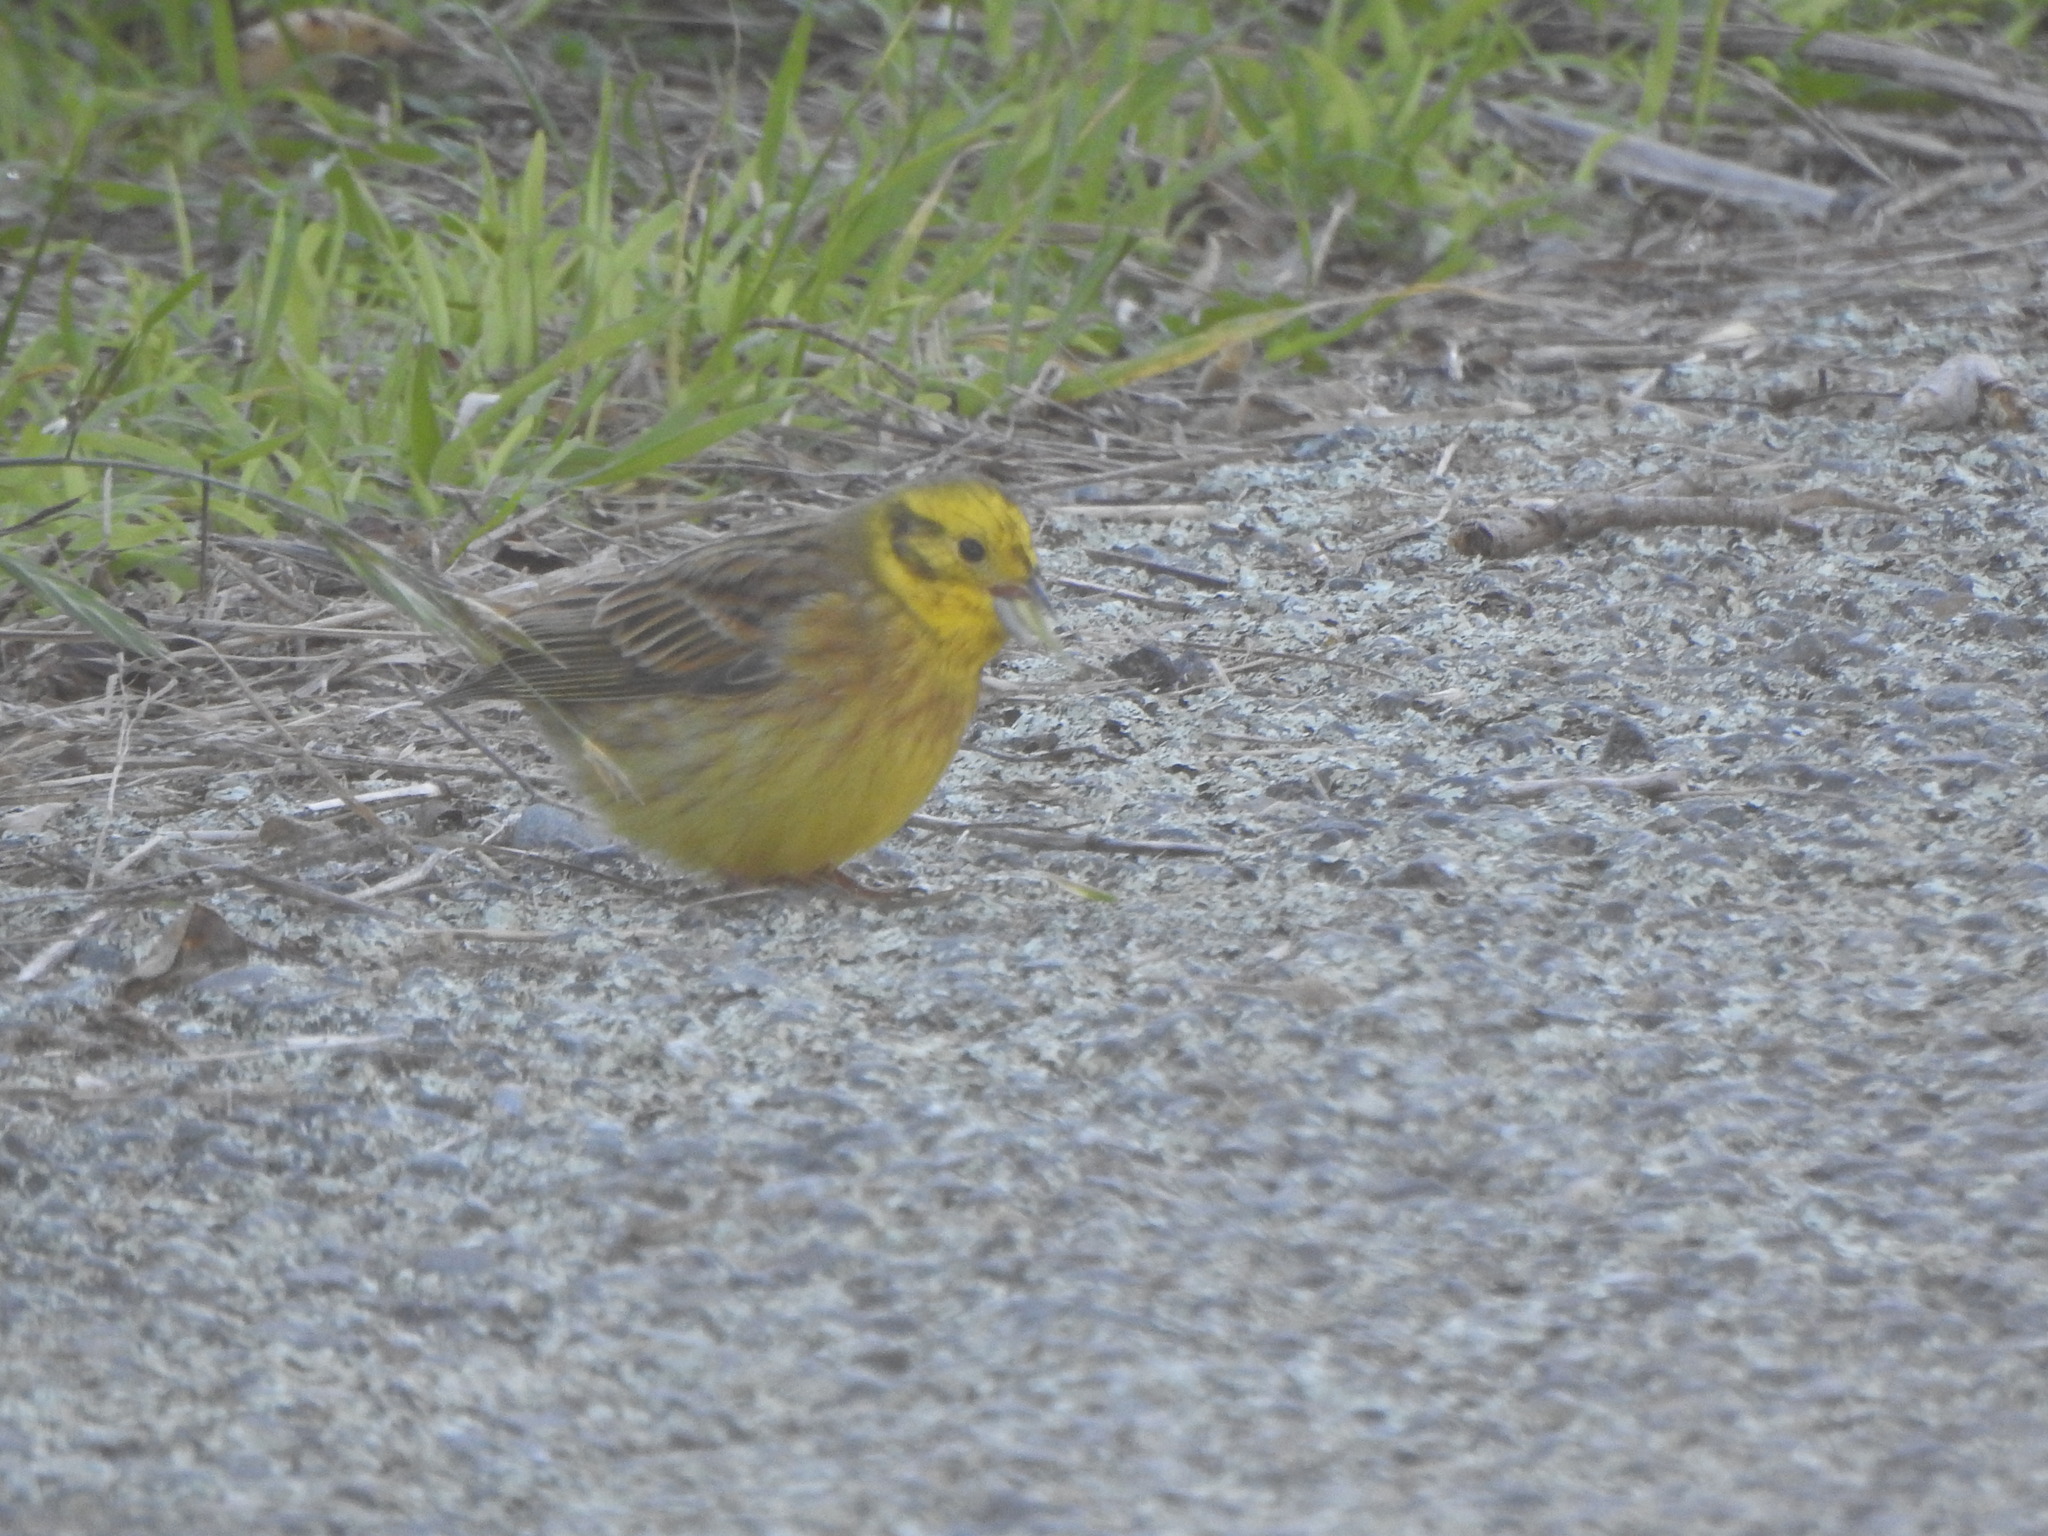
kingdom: Animalia
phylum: Chordata
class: Aves
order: Passeriformes
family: Emberizidae
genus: Emberiza
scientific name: Emberiza citrinella
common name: Yellowhammer
